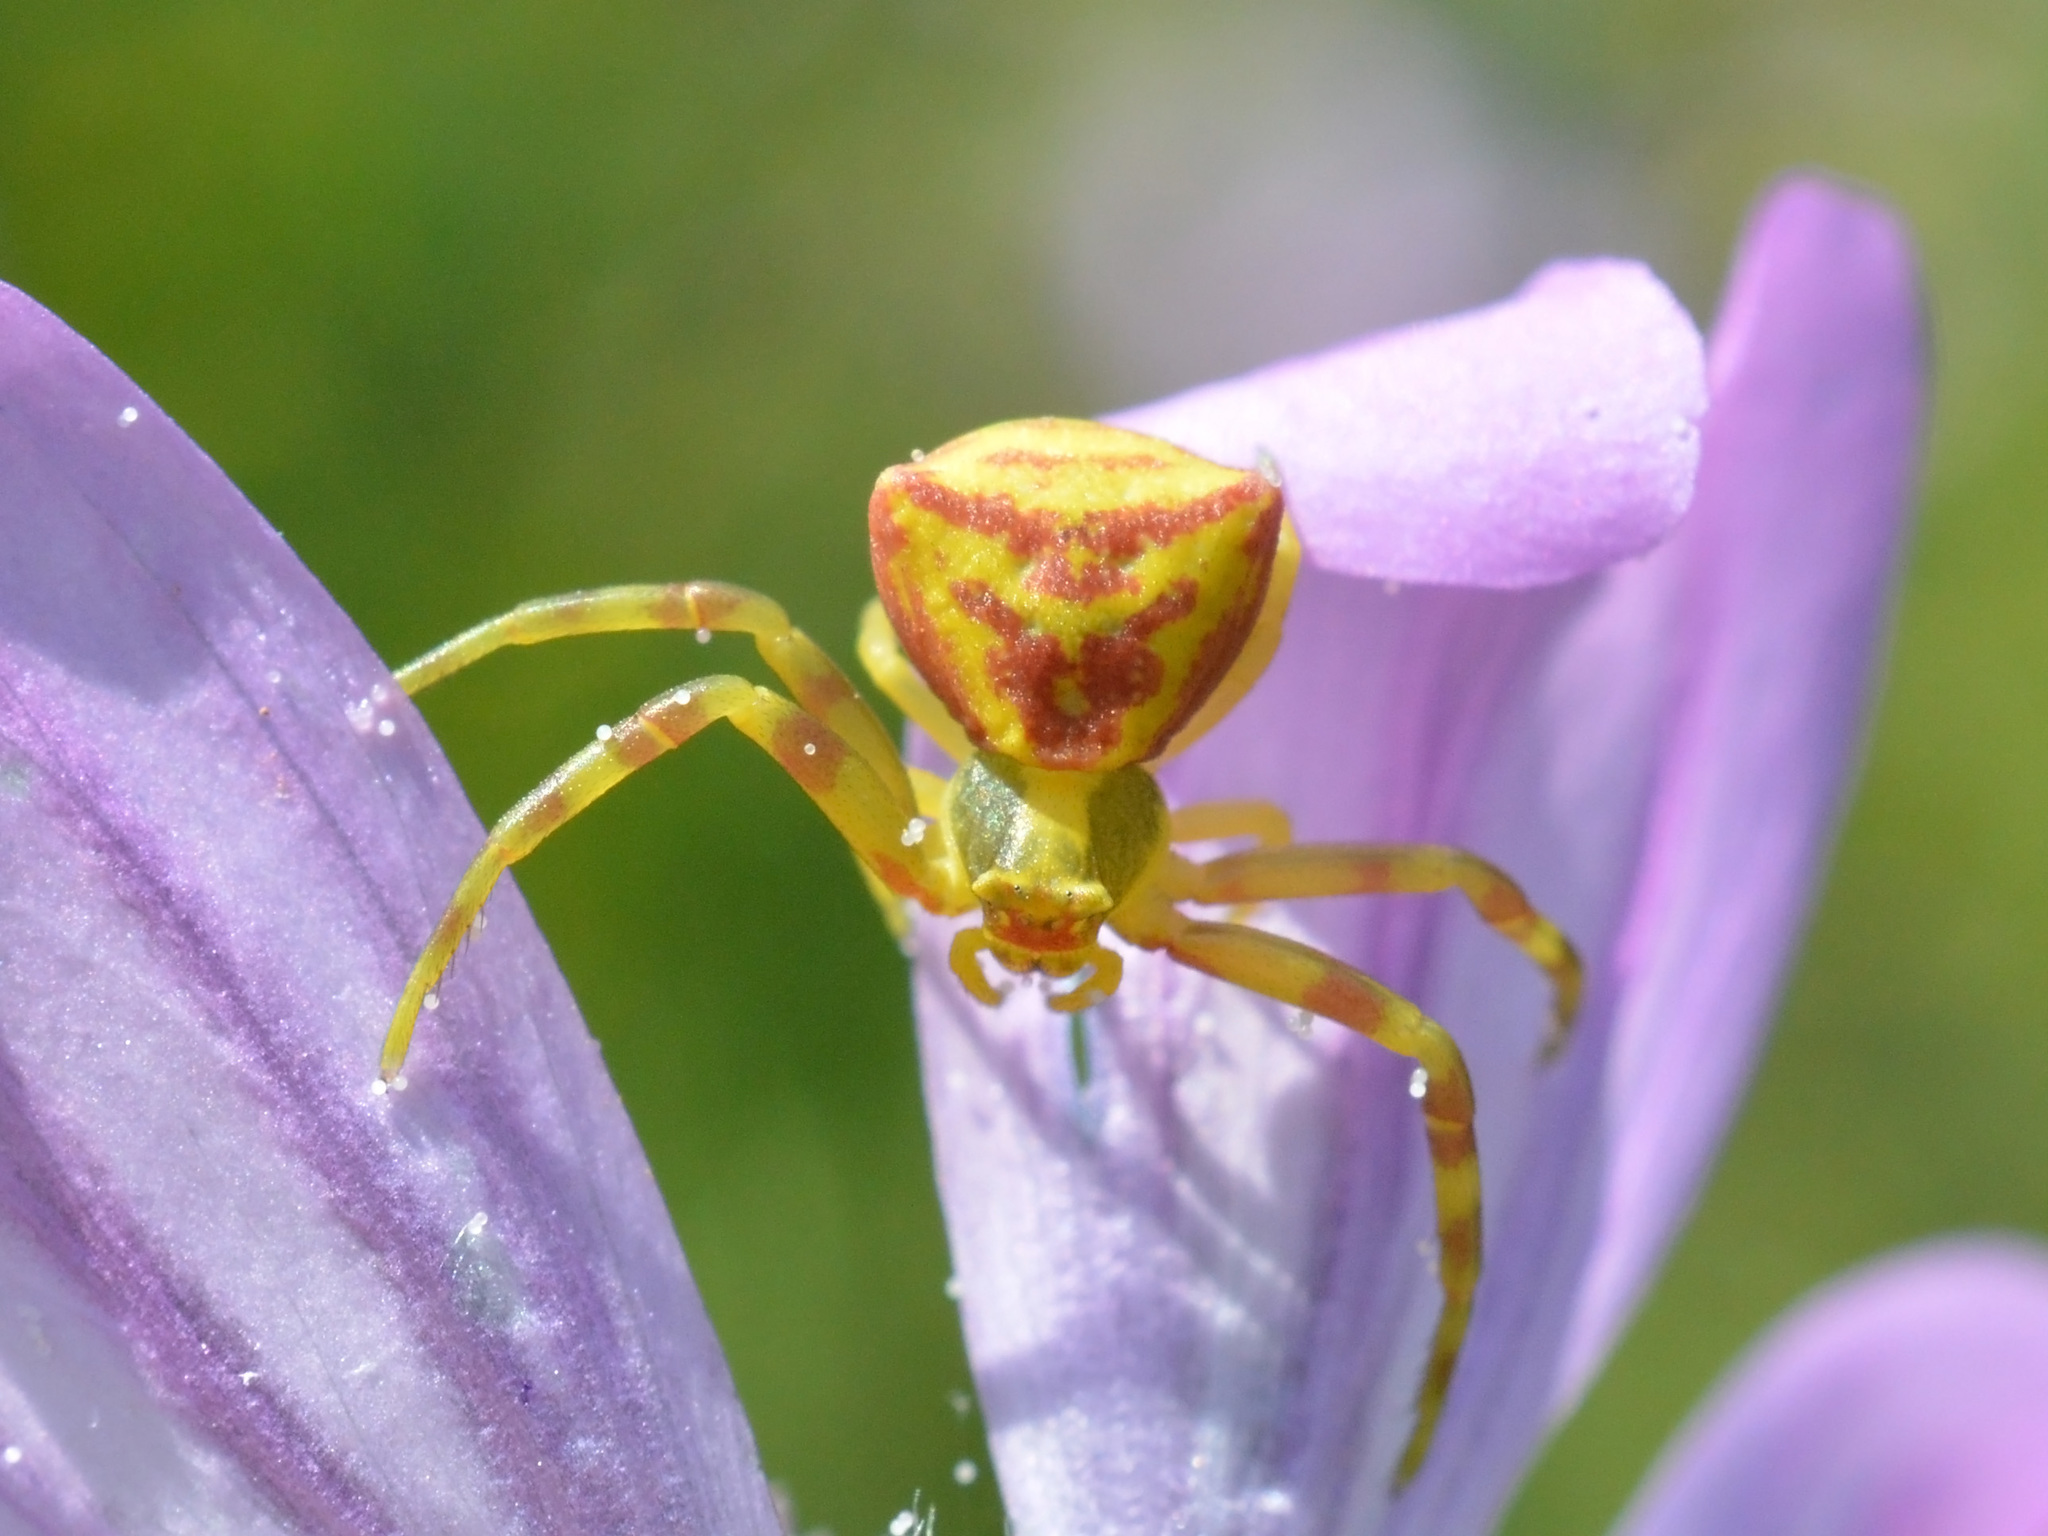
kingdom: Animalia
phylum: Arthropoda
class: Arachnida
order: Araneae
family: Thomisidae
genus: Thomisus
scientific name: Thomisus onustus
